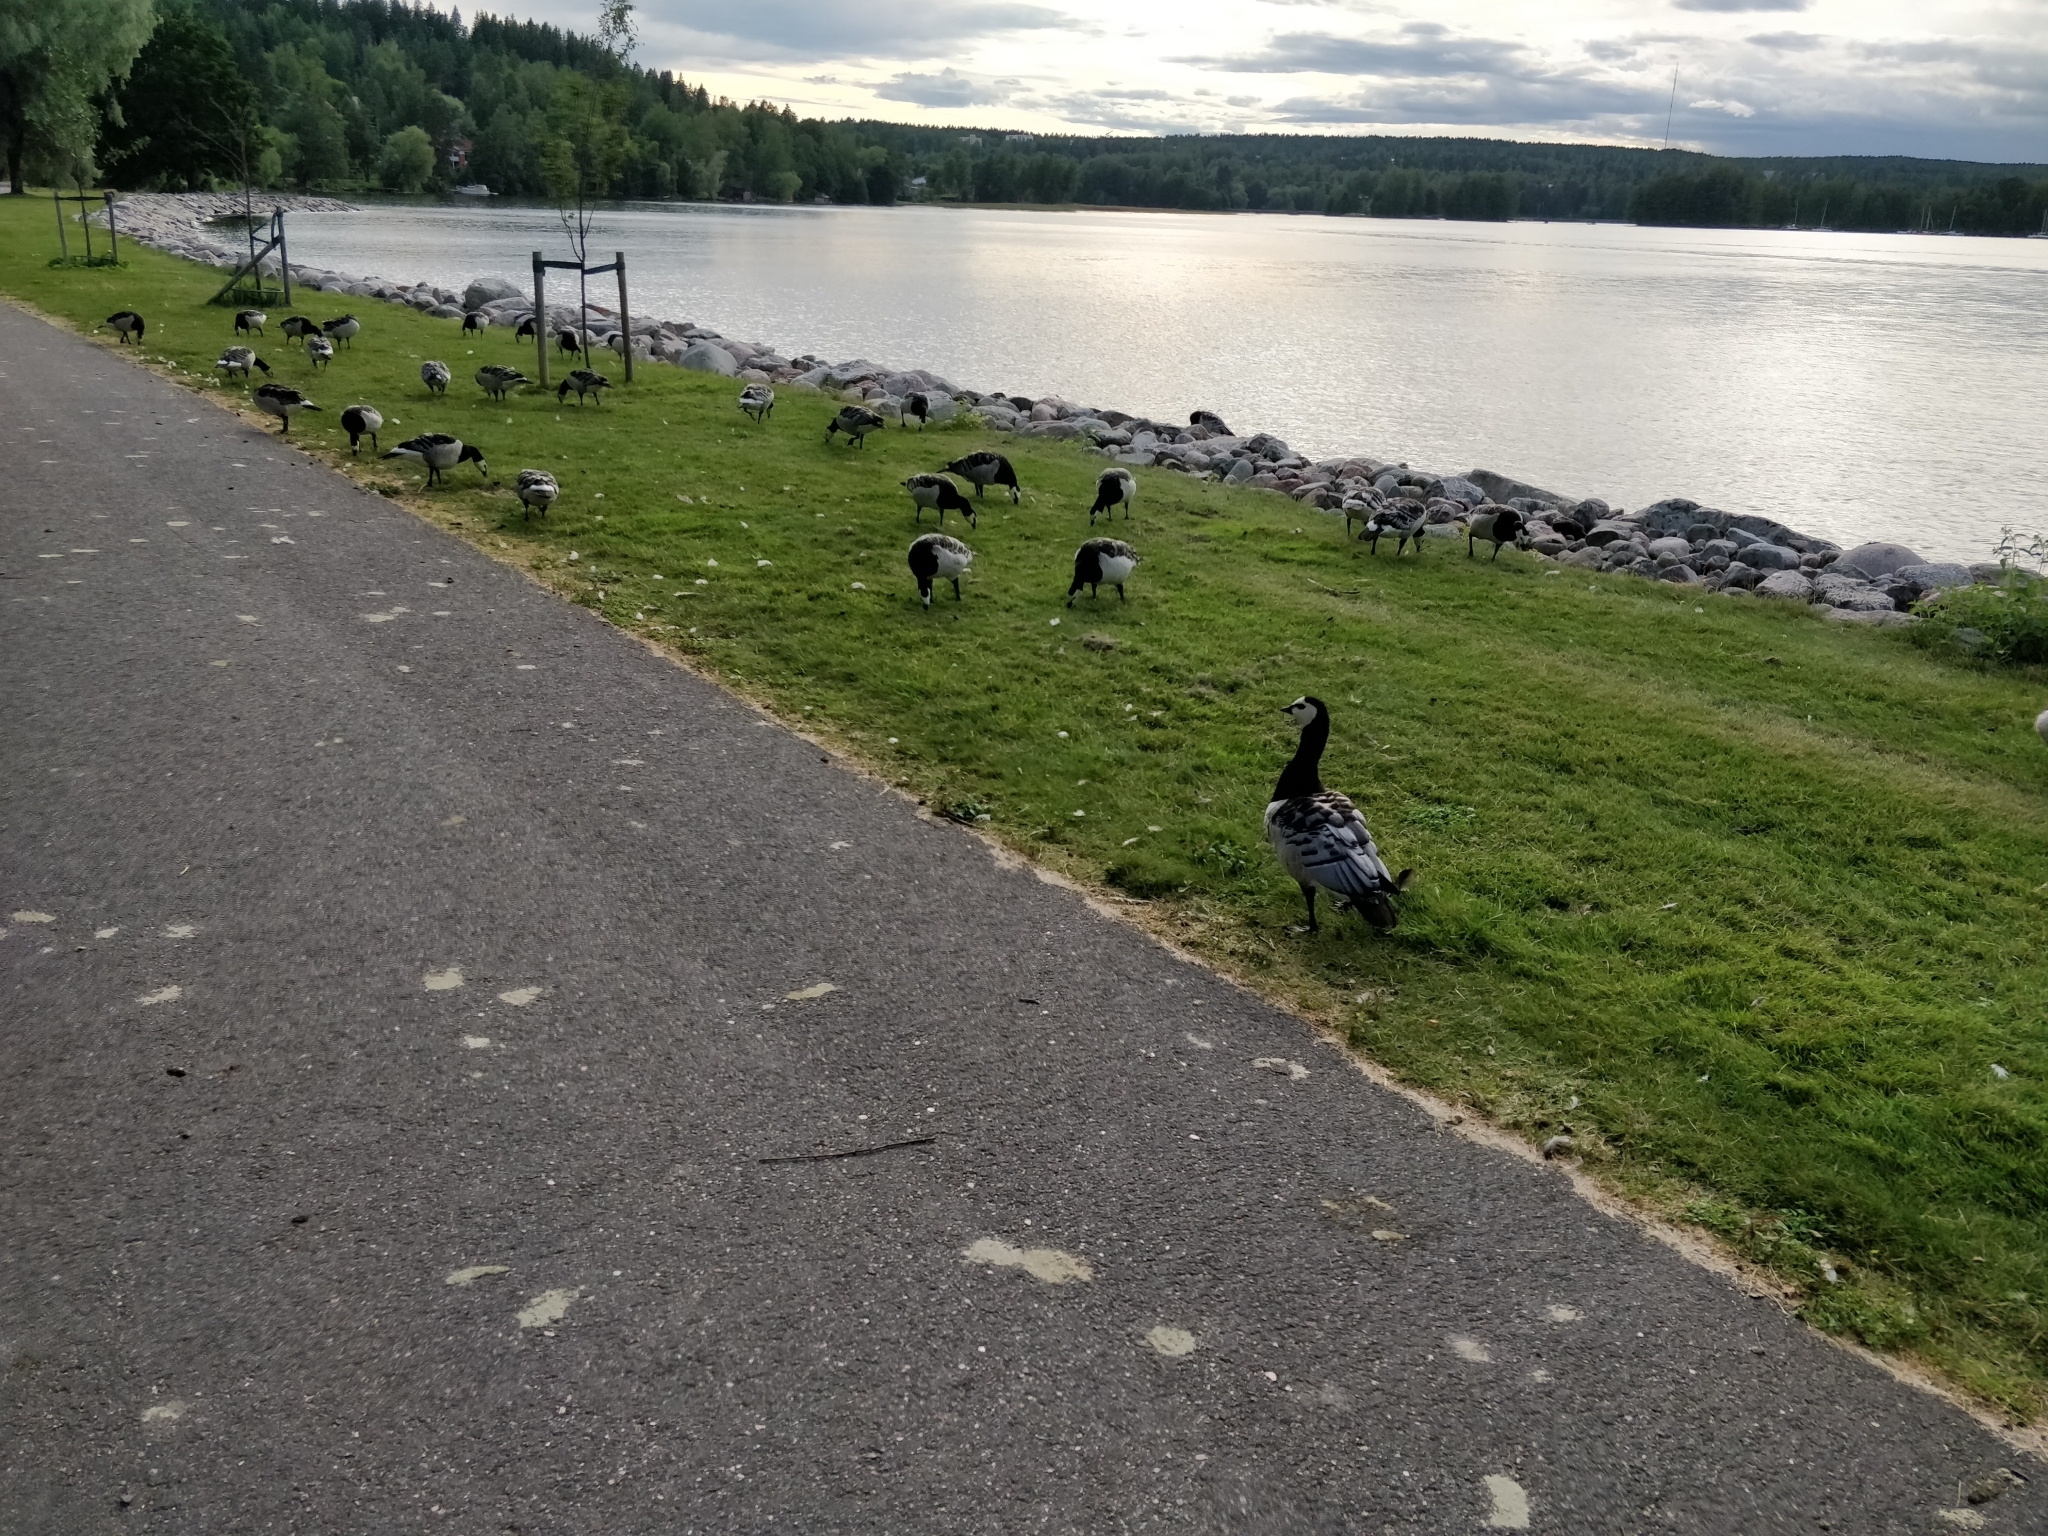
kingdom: Animalia
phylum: Chordata
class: Aves
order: Anseriformes
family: Anatidae
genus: Branta
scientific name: Branta leucopsis
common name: Barnacle goose
